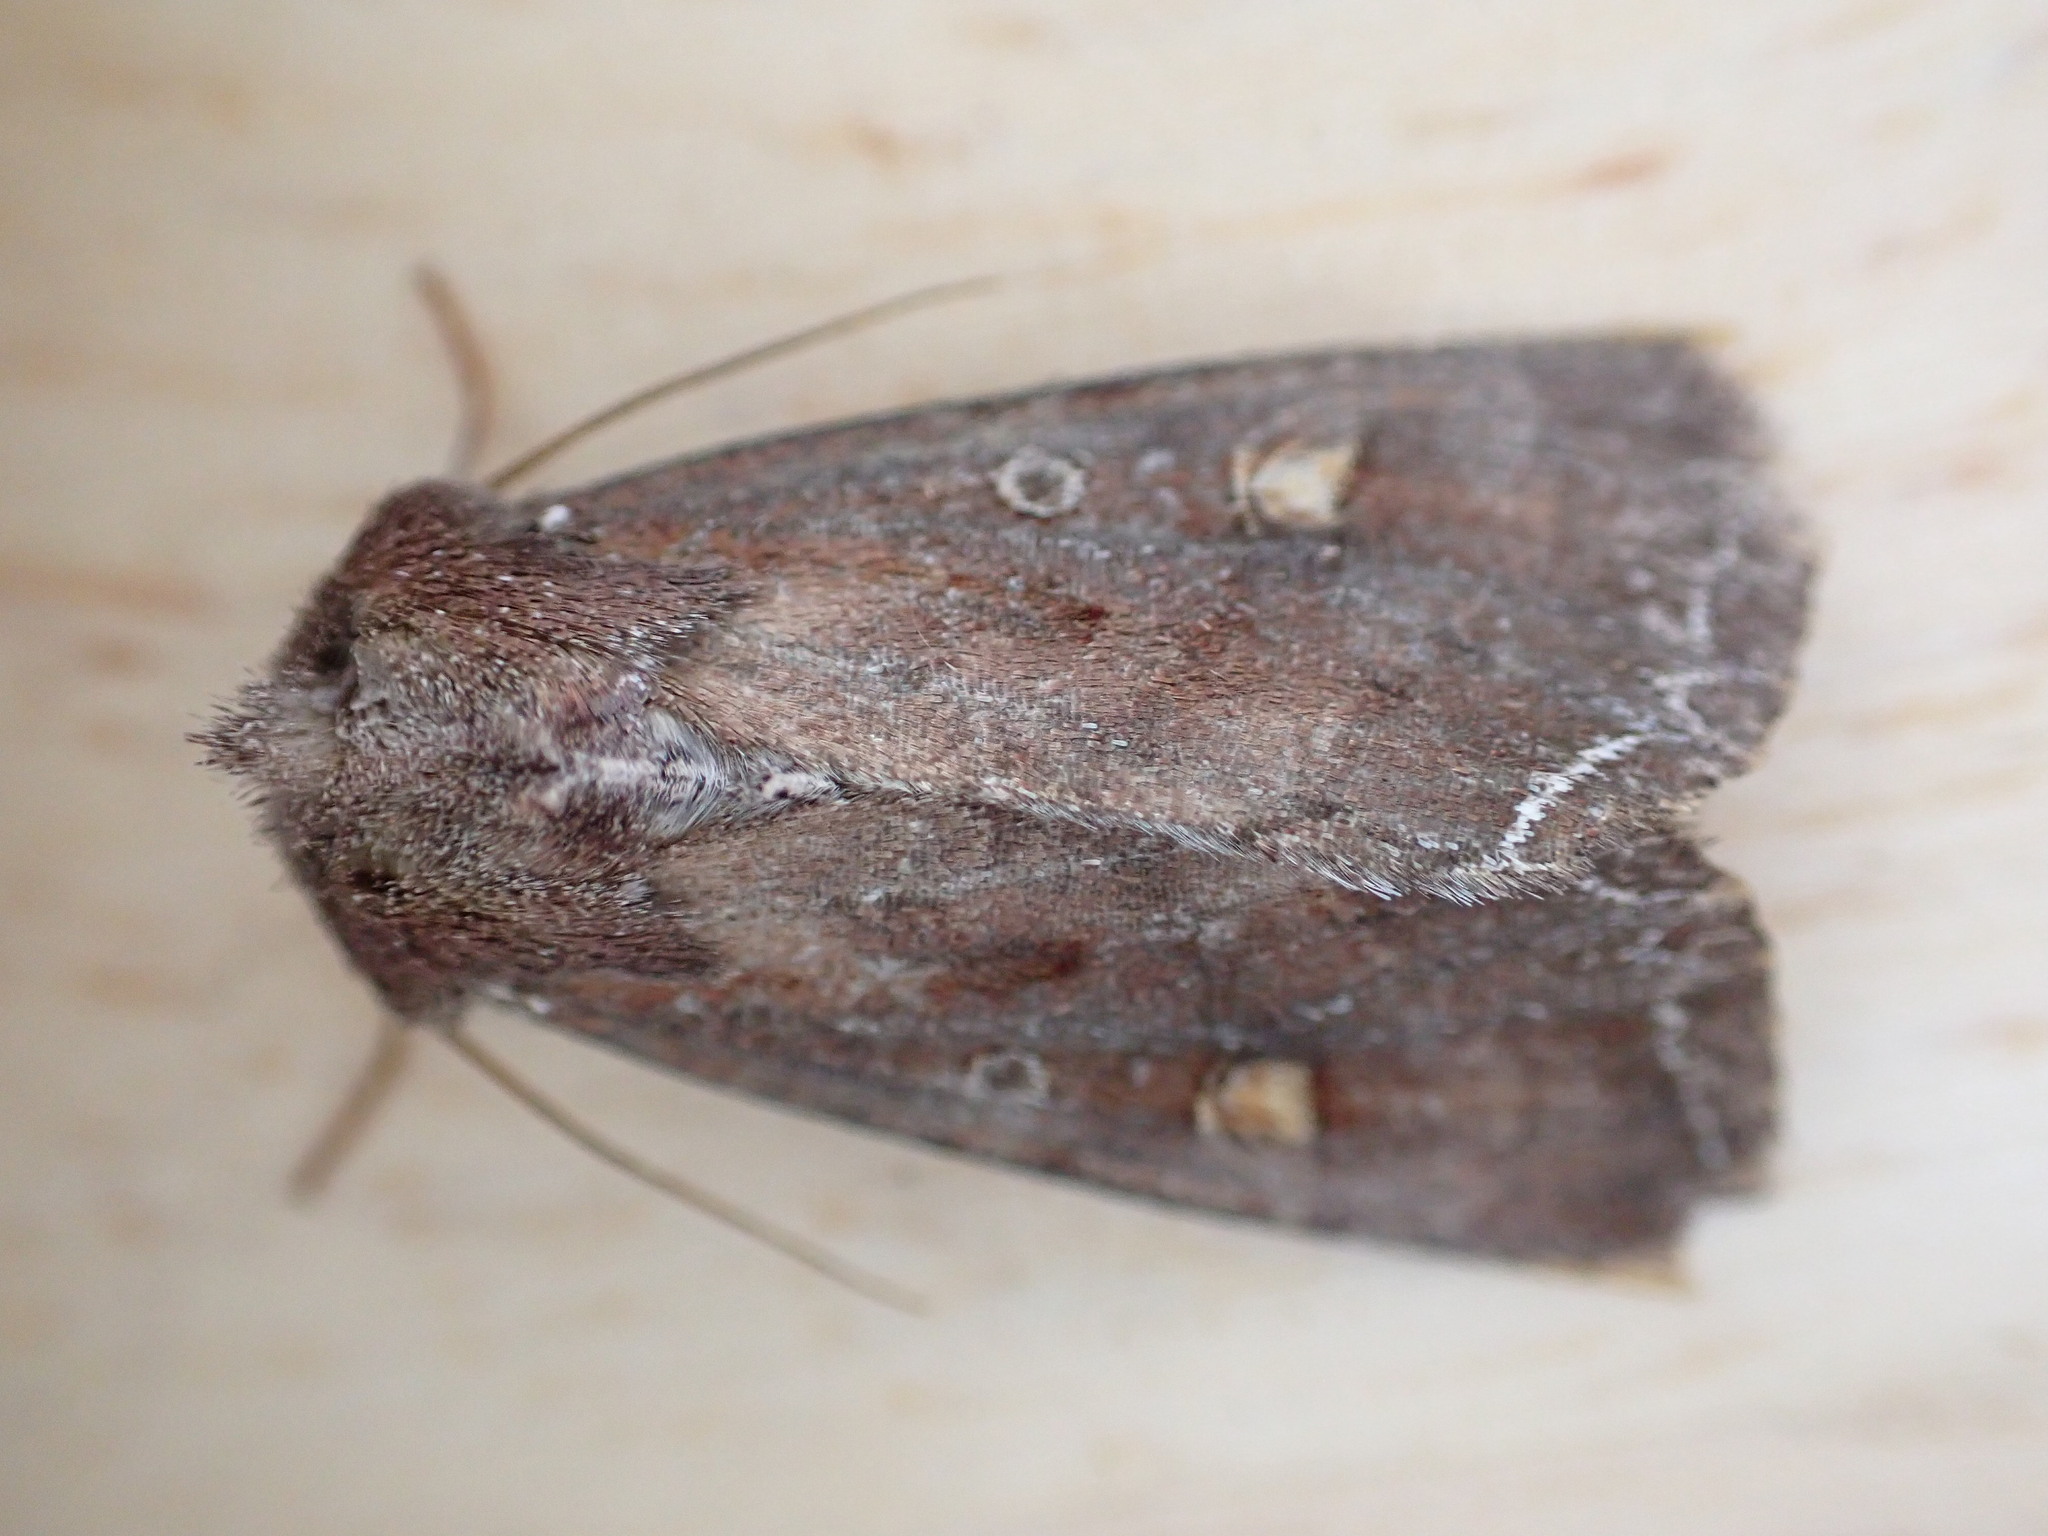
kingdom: Animalia
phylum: Arthropoda
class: Insecta
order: Lepidoptera
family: Noctuidae
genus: Lacanobia
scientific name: Lacanobia oleracea
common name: Bright-line brown-eye
